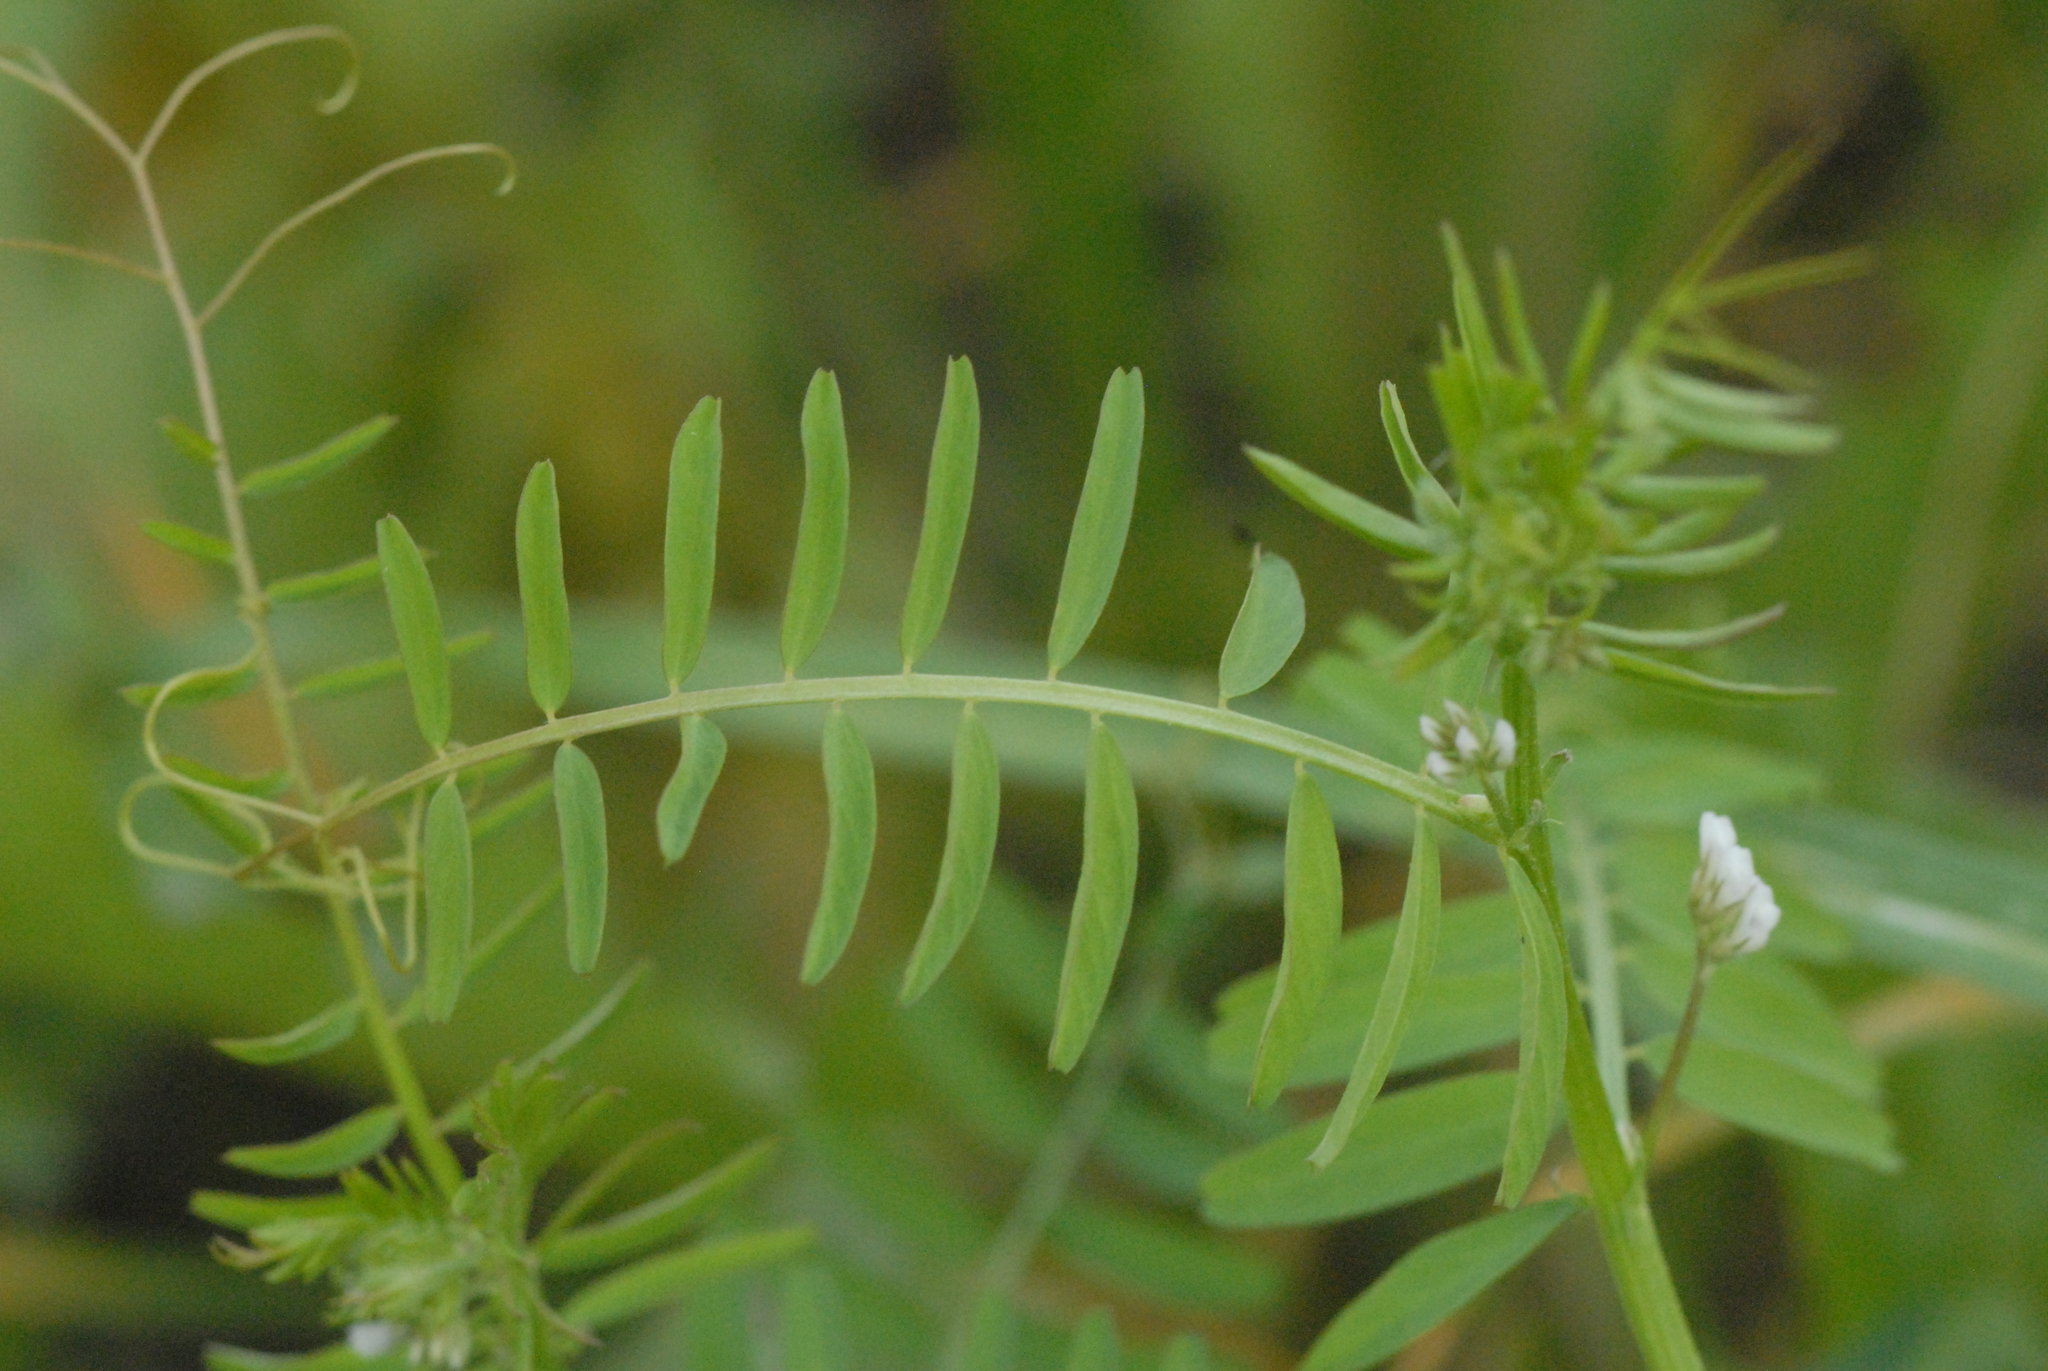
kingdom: Plantae
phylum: Tracheophyta
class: Magnoliopsida
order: Fabales
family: Fabaceae
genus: Vicia
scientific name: Vicia hirsuta
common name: Tiny vetch
